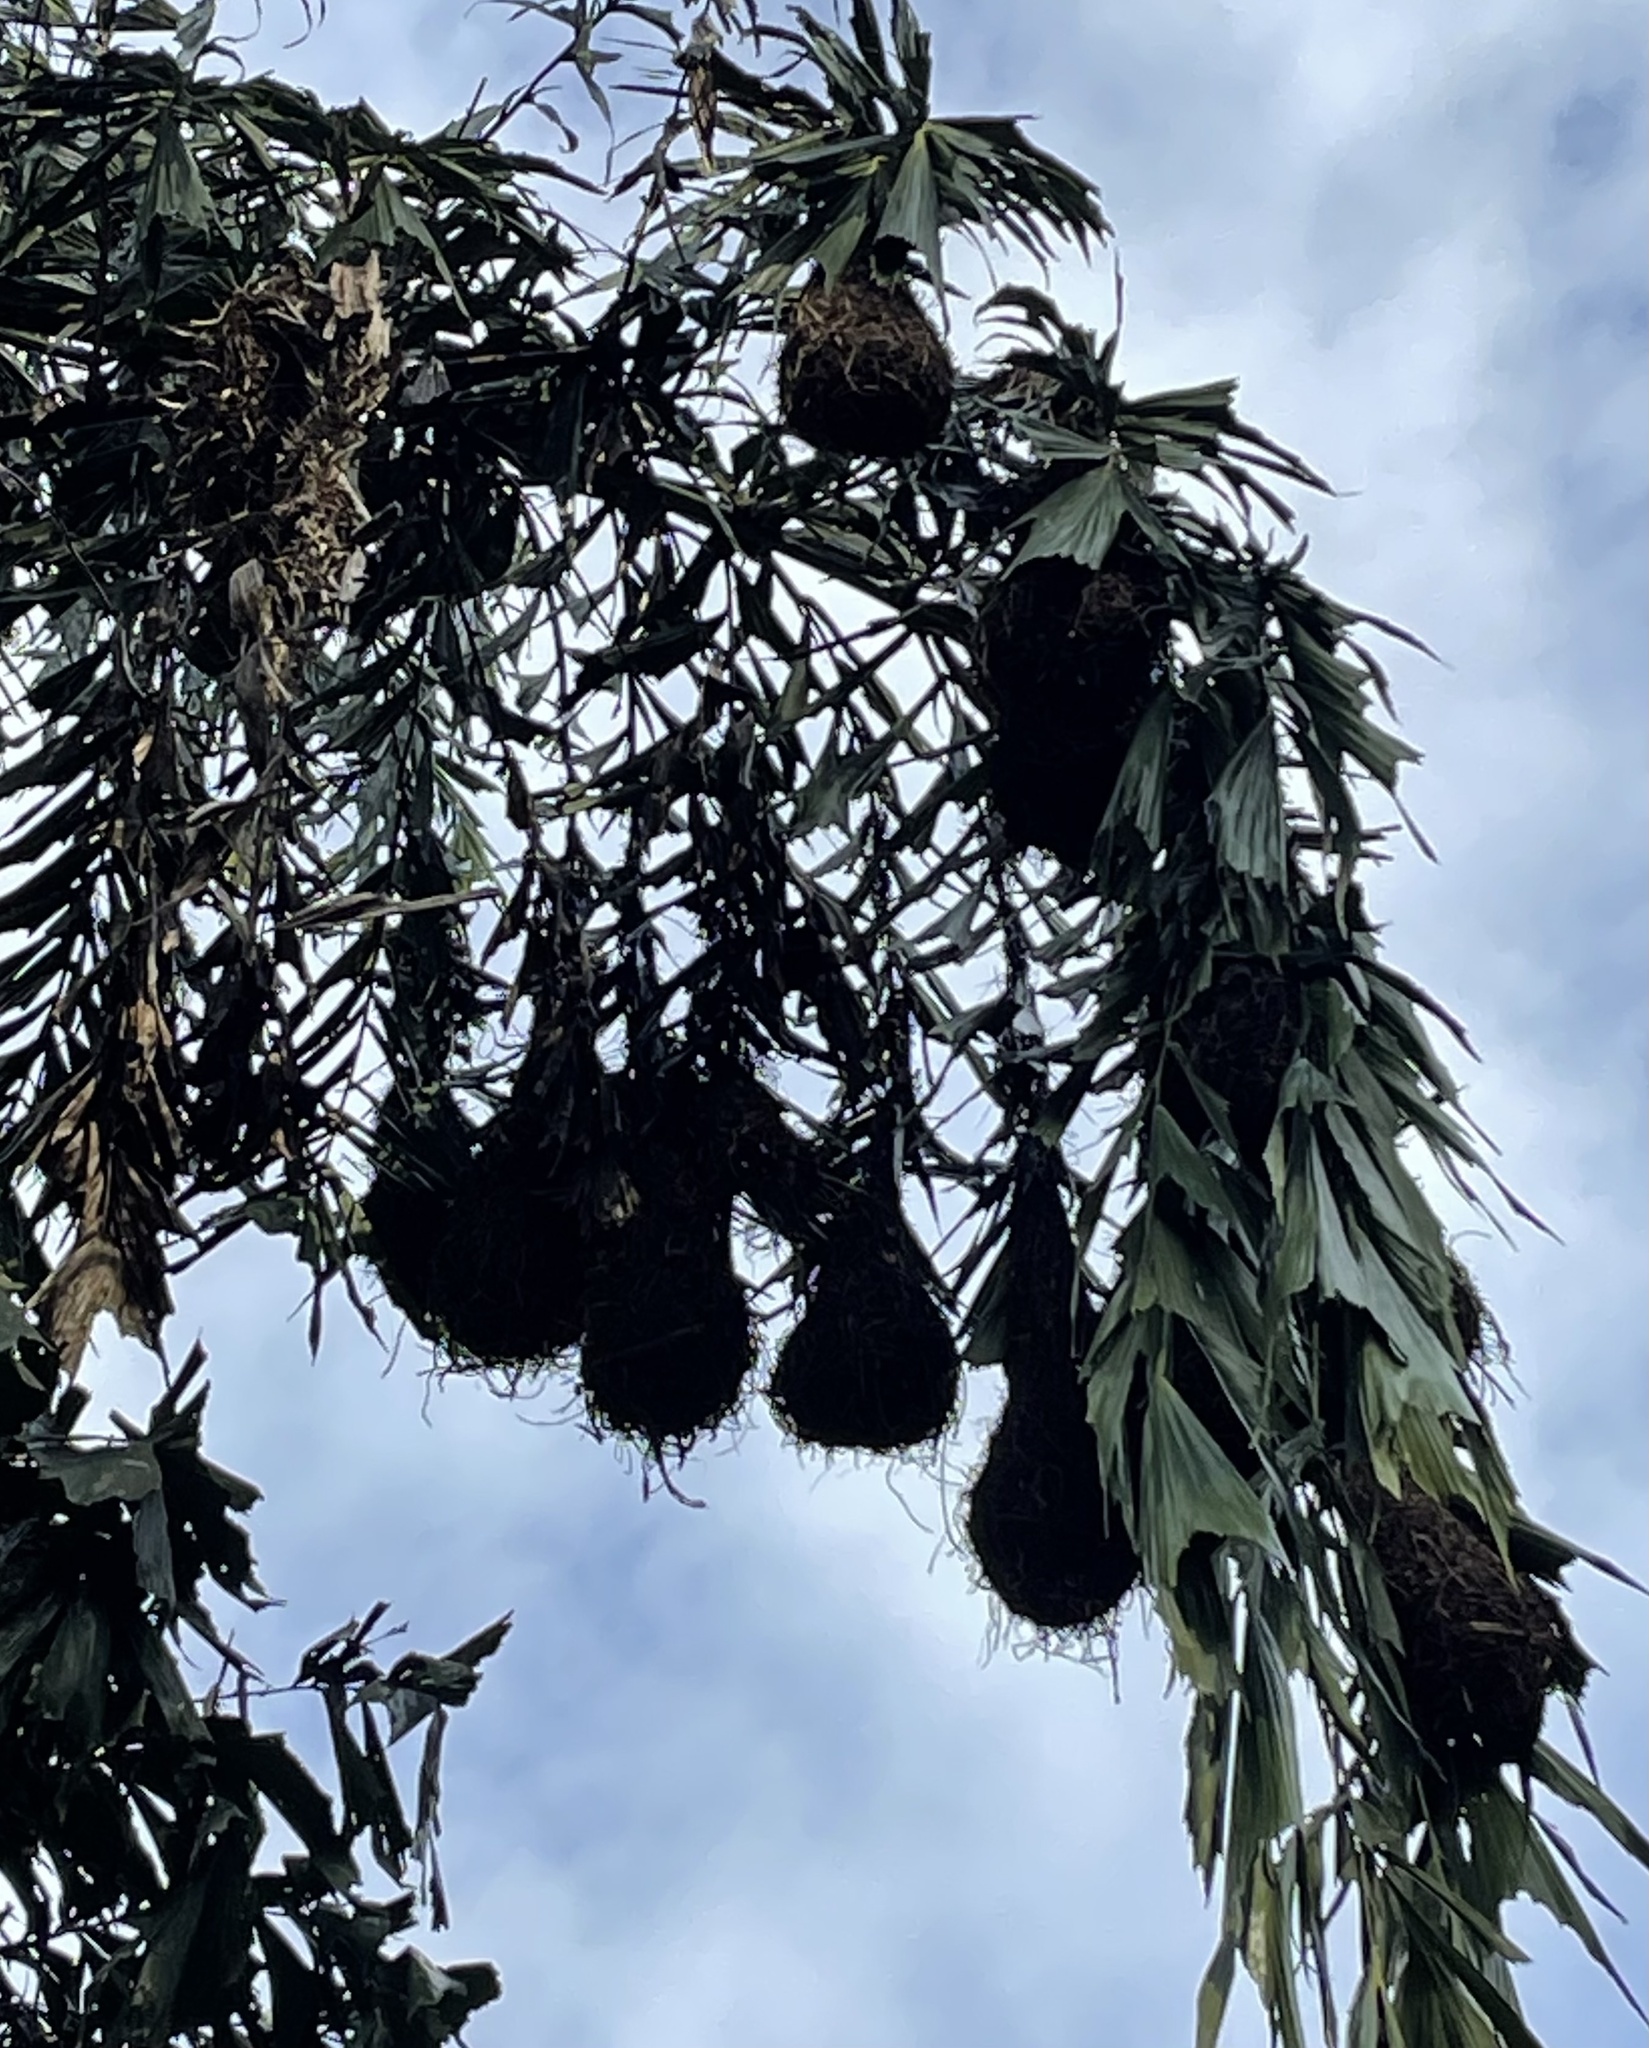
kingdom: Animalia
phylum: Chordata
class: Aves
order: Passeriformes
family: Icteridae
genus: Psarocolius
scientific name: Psarocolius montezuma
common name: Montezuma oropendola
